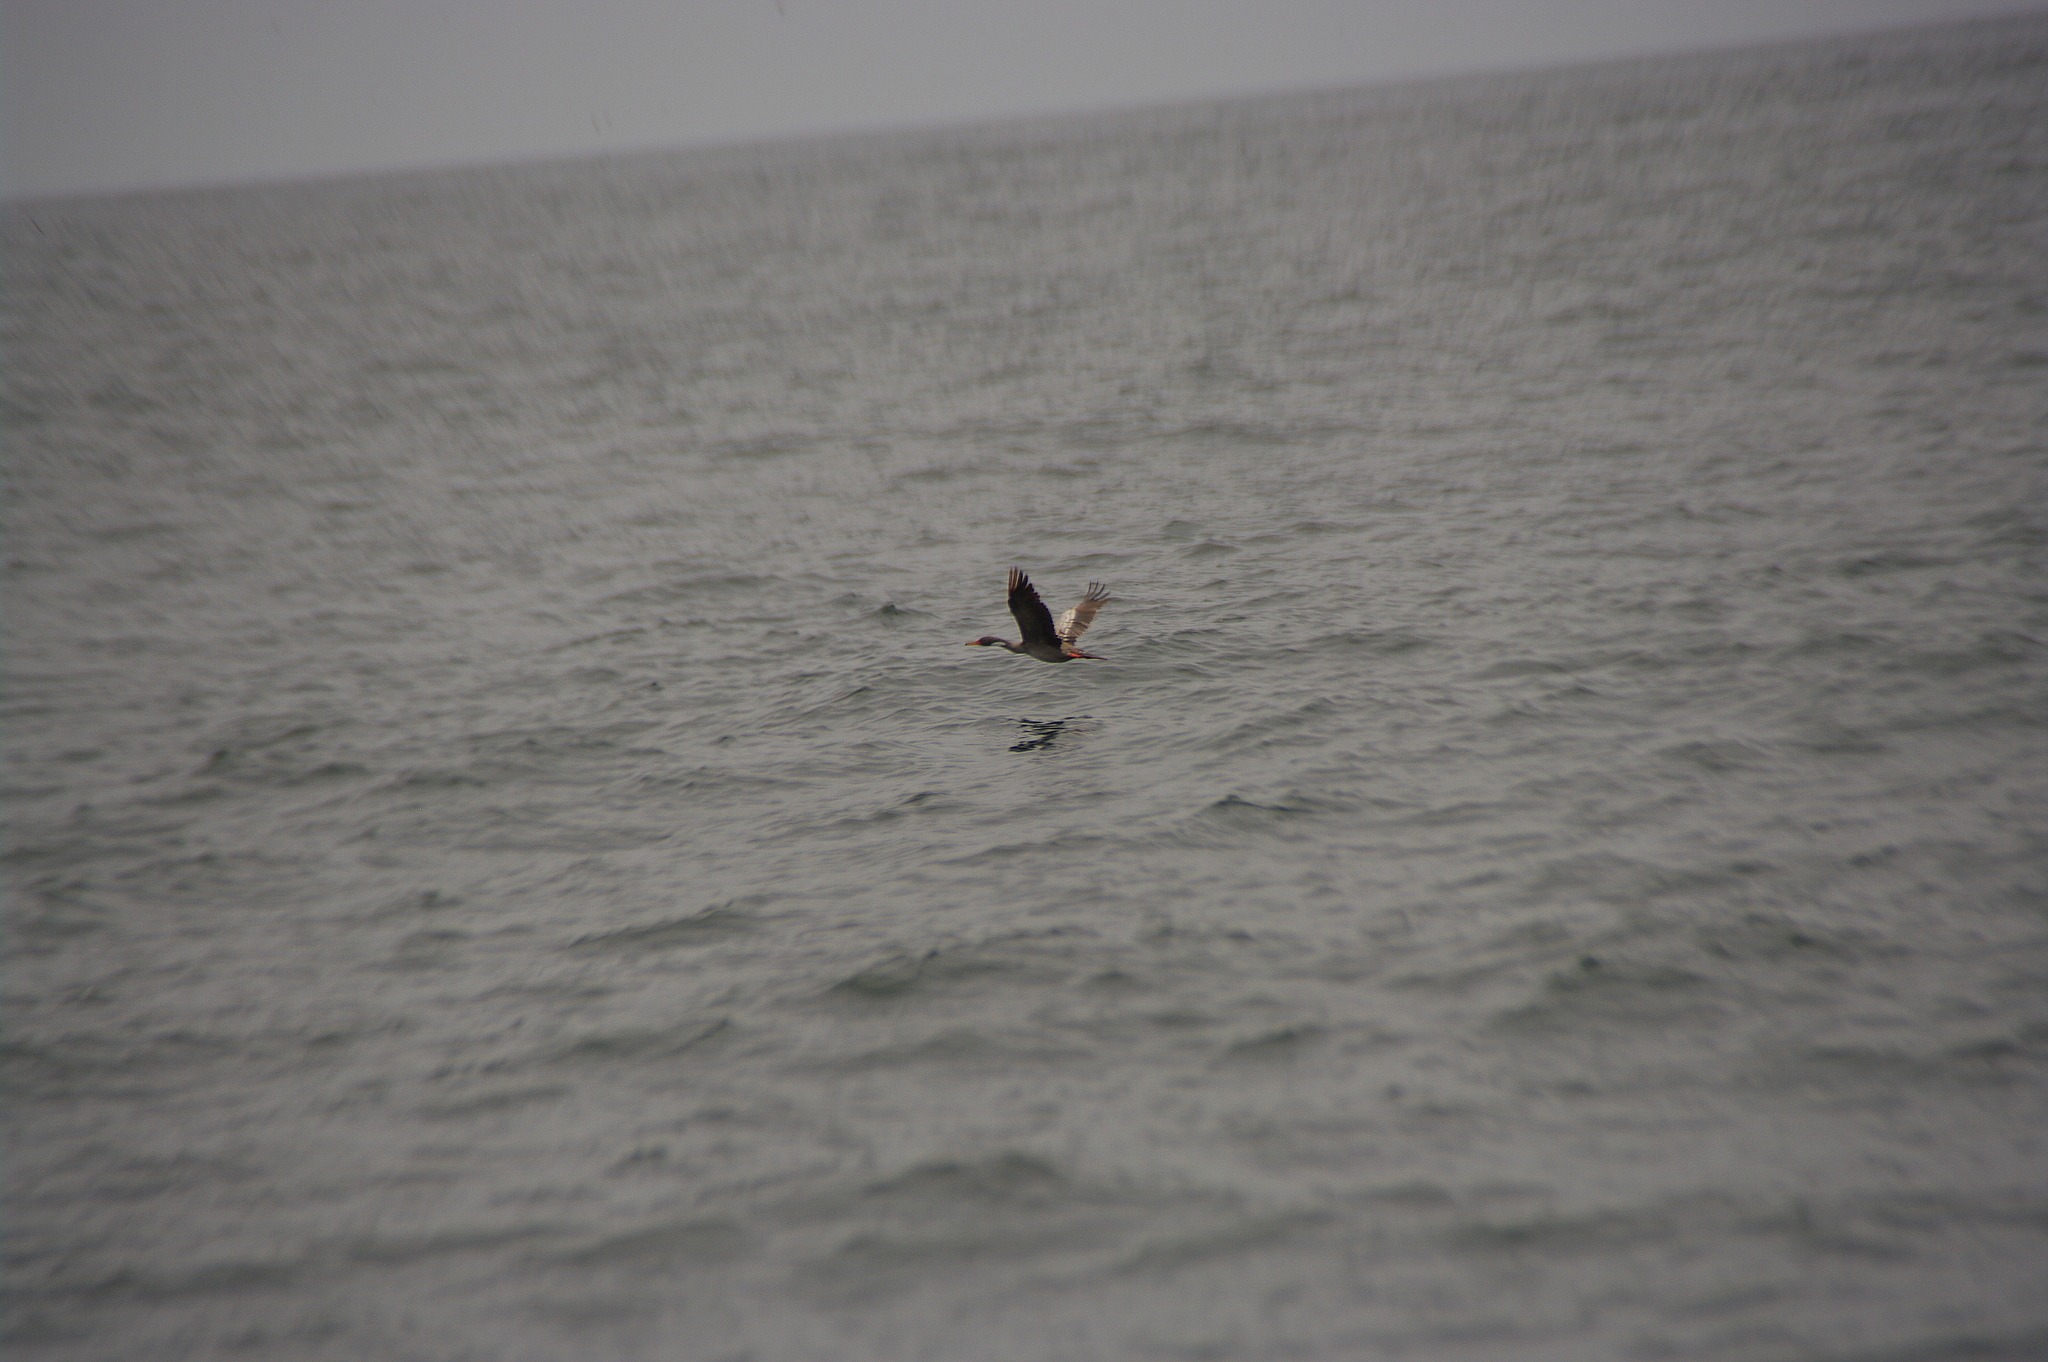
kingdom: Animalia
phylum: Chordata
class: Aves
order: Suliformes
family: Phalacrocoracidae
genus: Phalacrocorax
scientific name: Phalacrocorax gaimardi
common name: Red-legged cormorant
